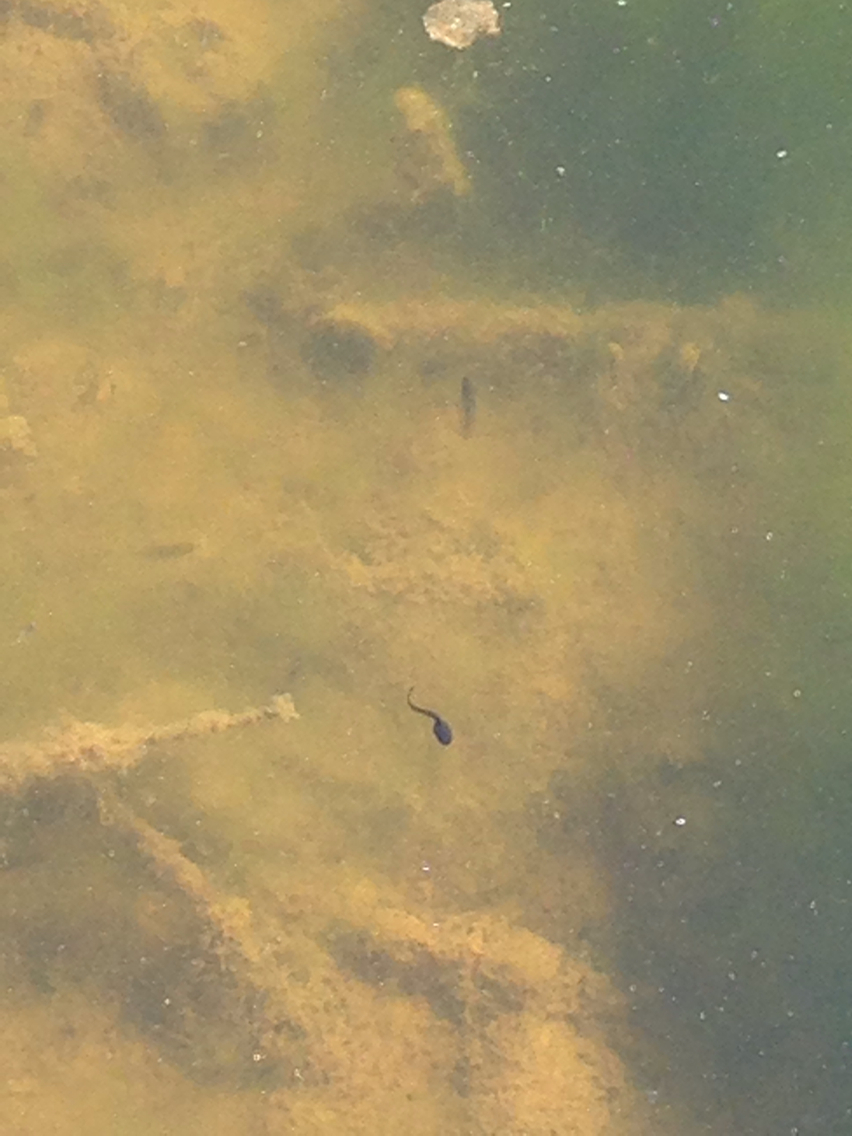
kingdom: Animalia
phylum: Chordata
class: Amphibia
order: Anura
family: Ranidae
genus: Rana
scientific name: Rana temporaria
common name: Common frog
